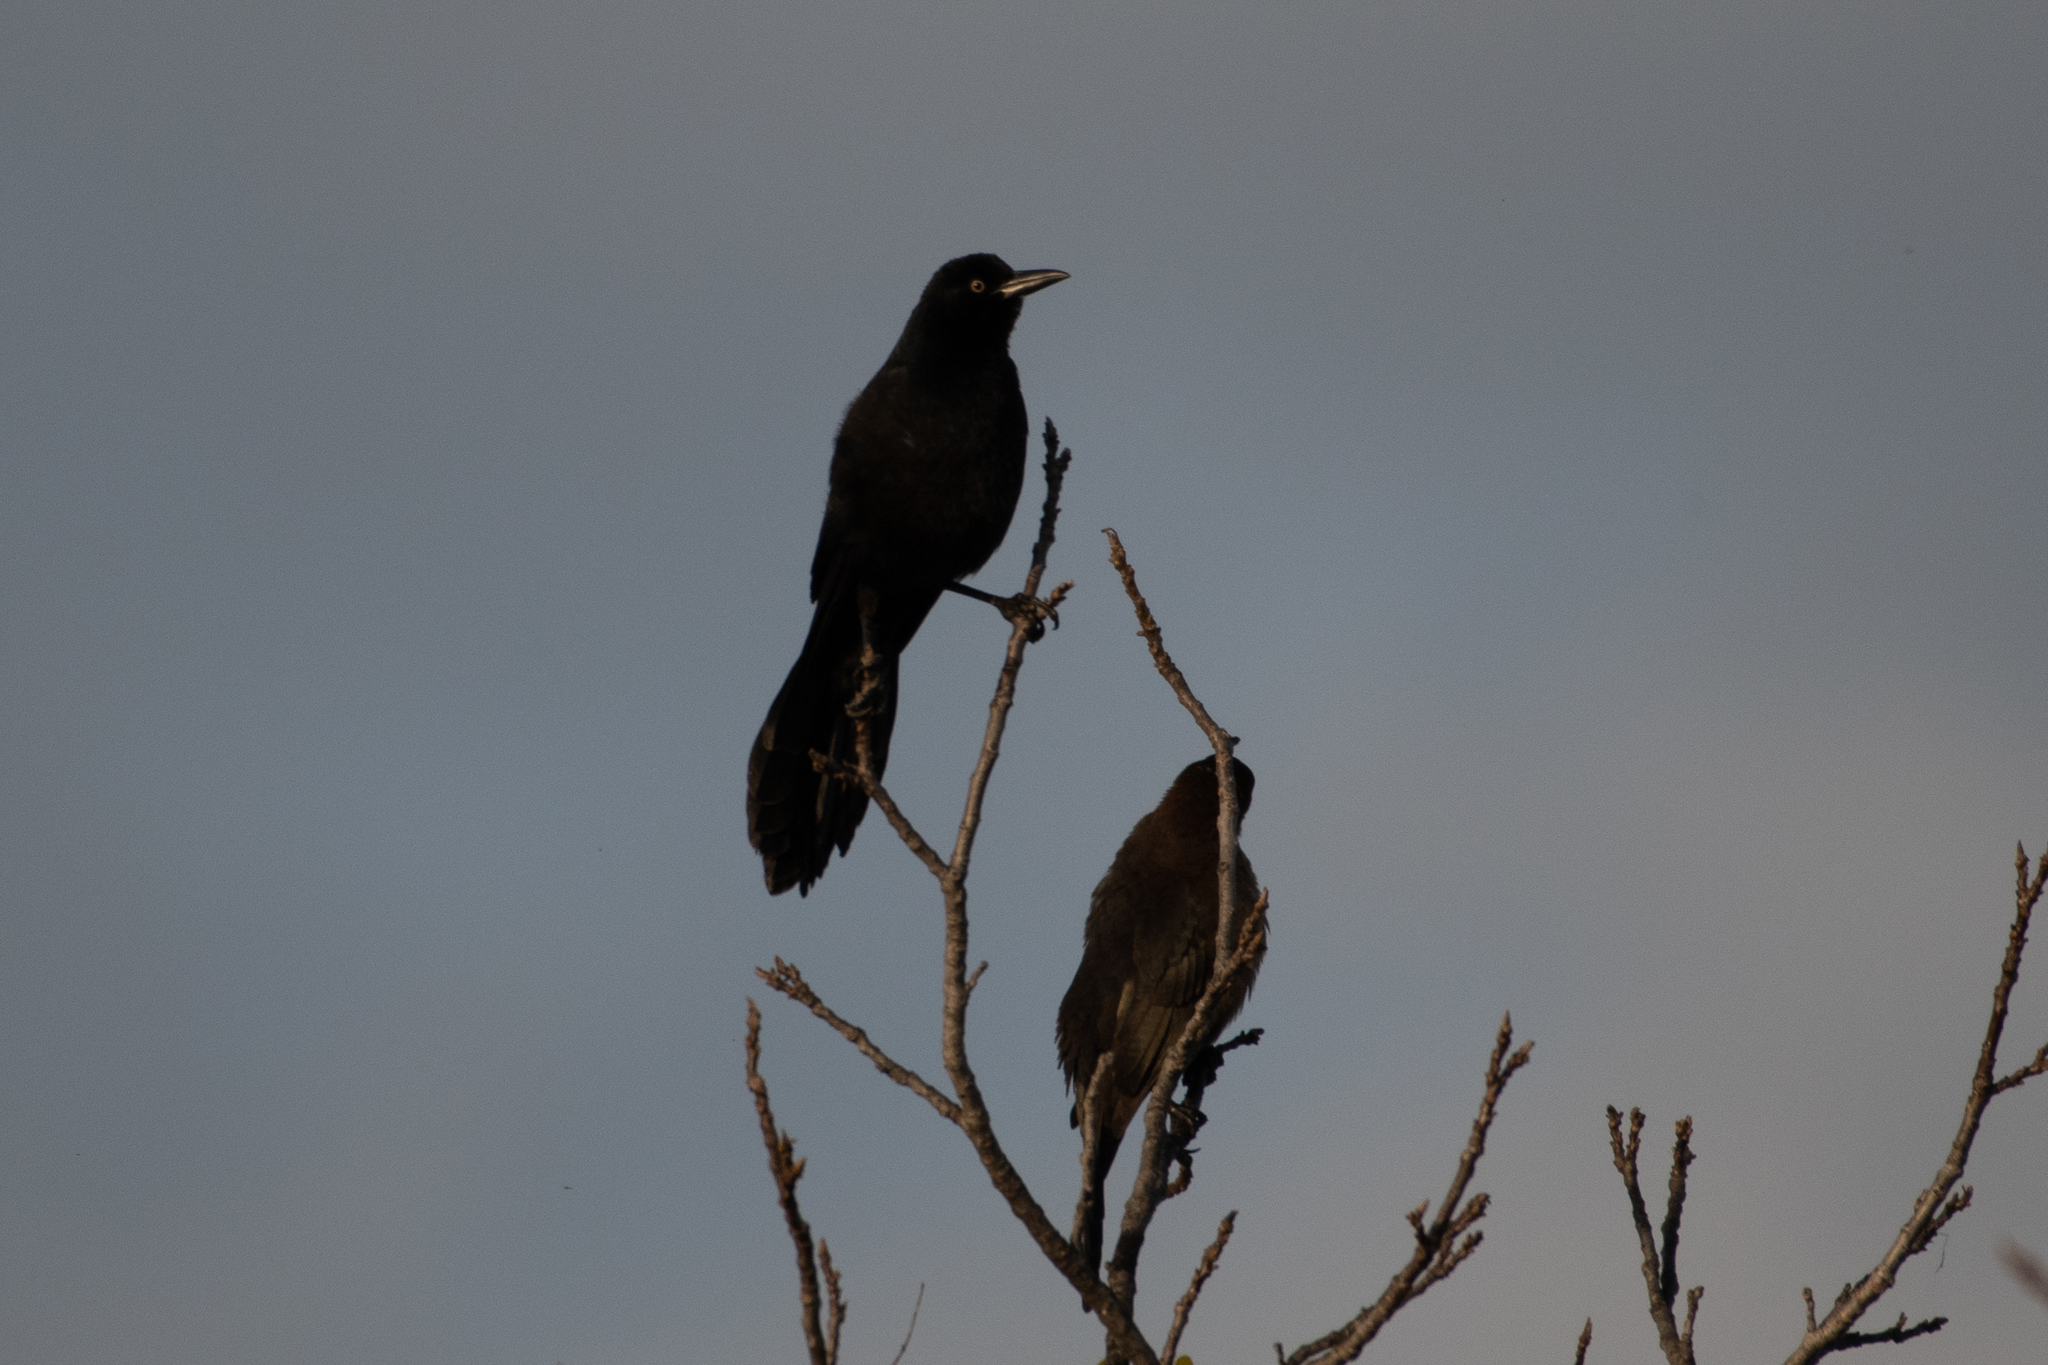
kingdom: Animalia
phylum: Chordata
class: Aves
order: Passeriformes
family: Icteridae
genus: Quiscalus
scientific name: Quiscalus mexicanus
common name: Great-tailed grackle
